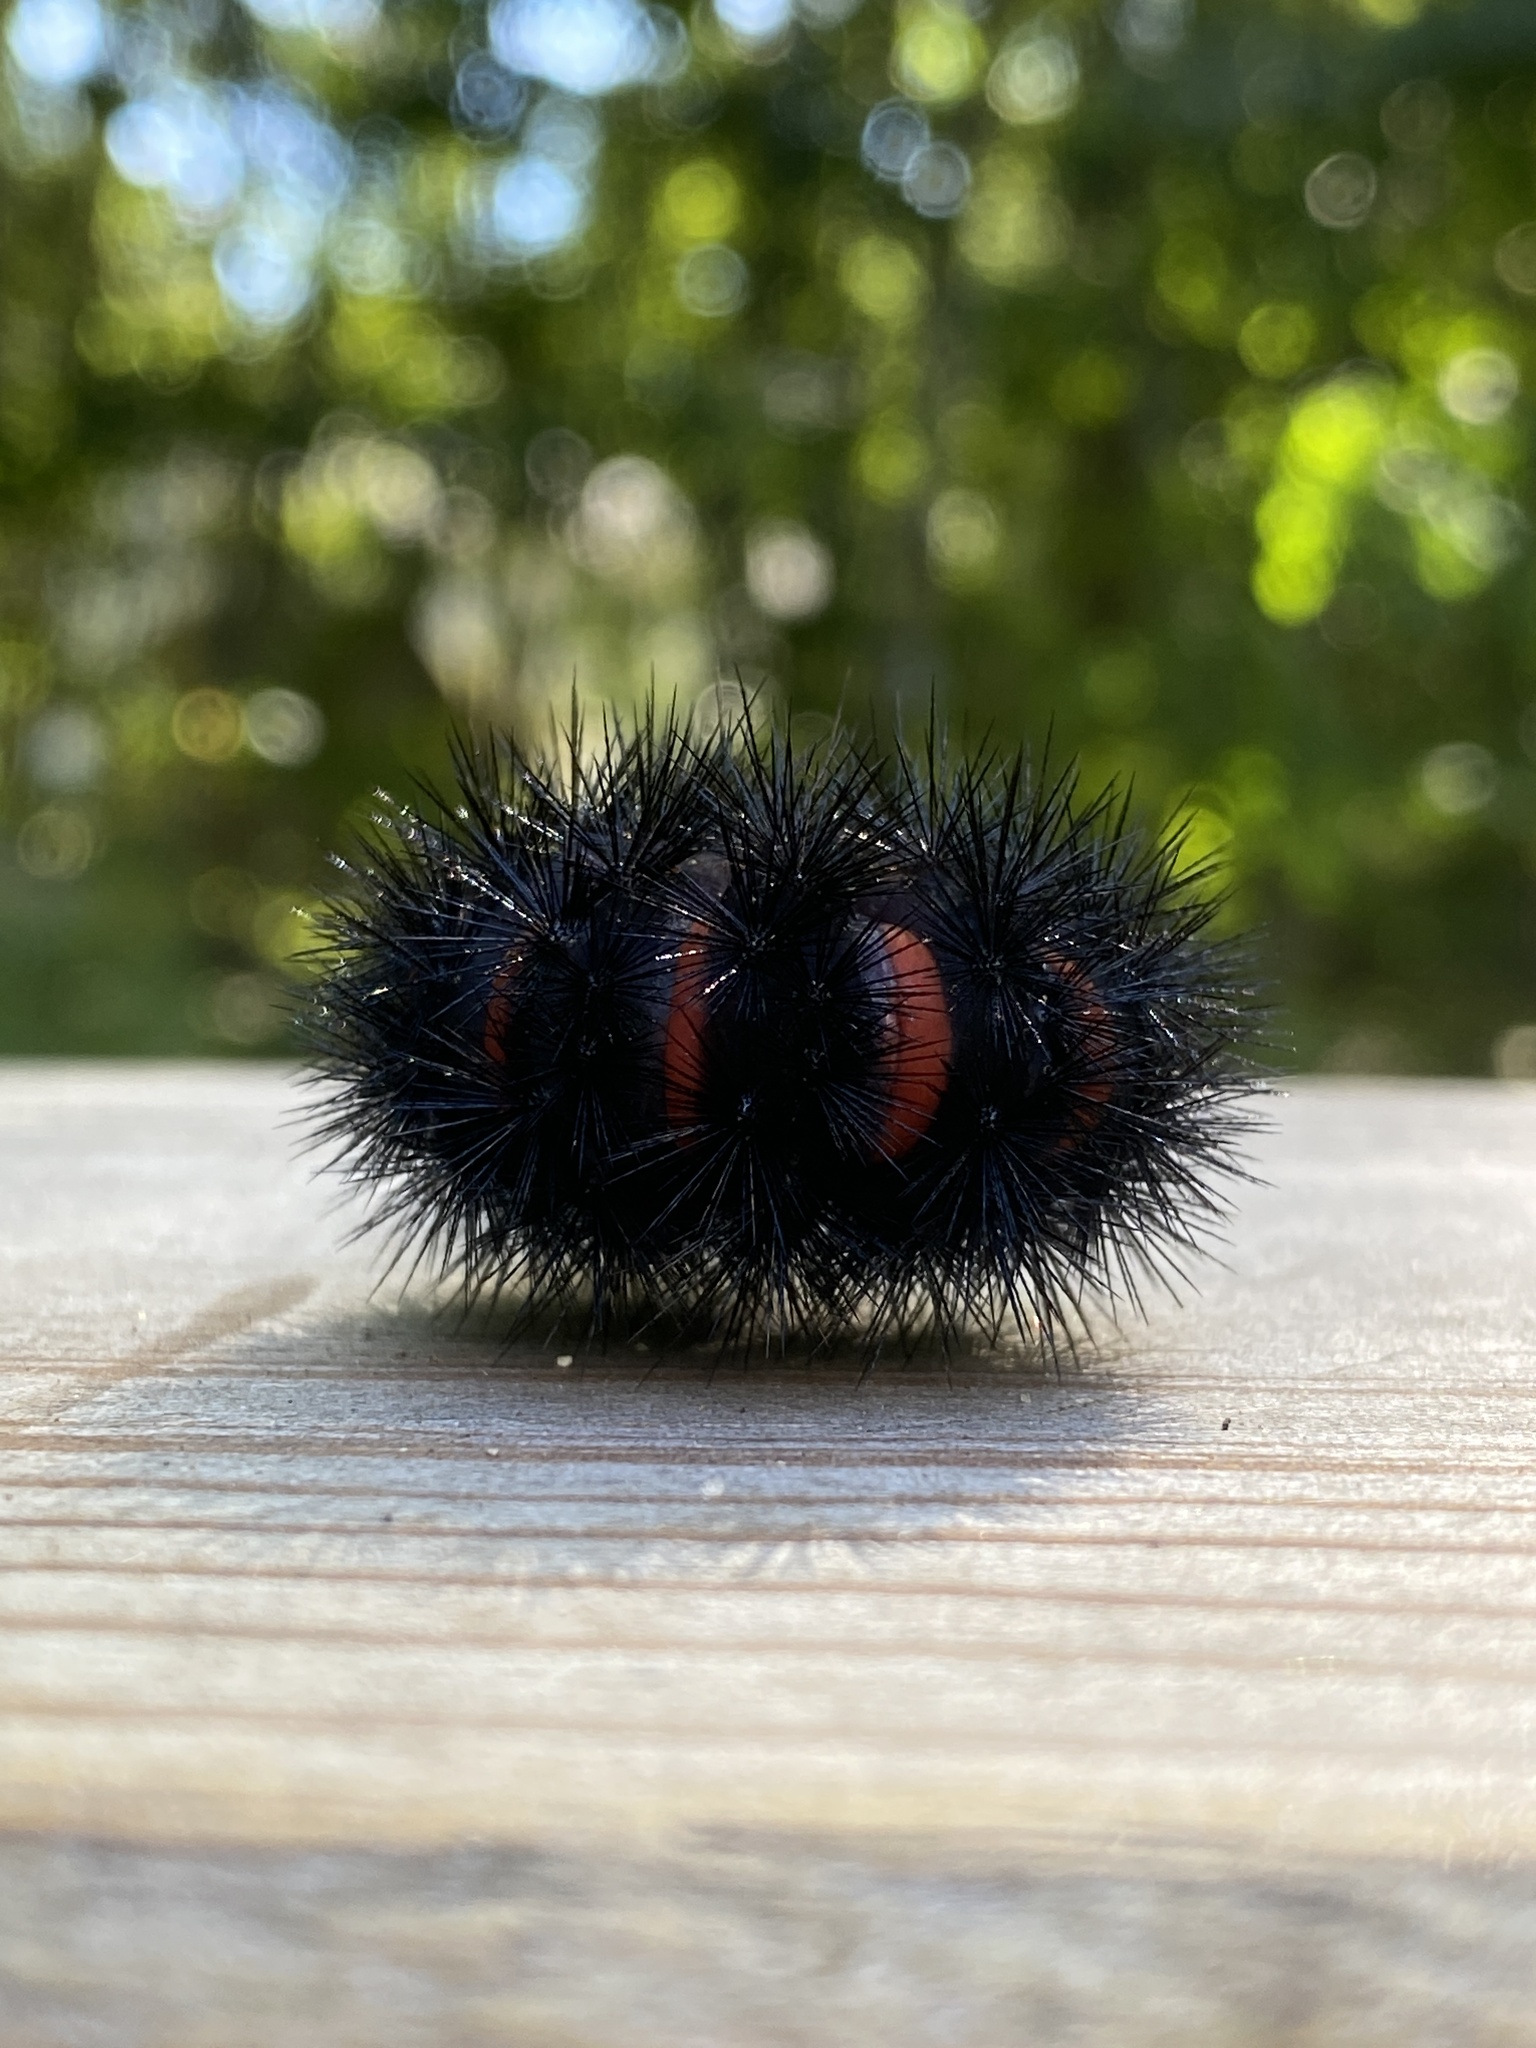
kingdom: Animalia
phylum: Arthropoda
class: Insecta
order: Lepidoptera
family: Erebidae
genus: Hypercompe
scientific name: Hypercompe scribonia
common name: Giant leopard moth
